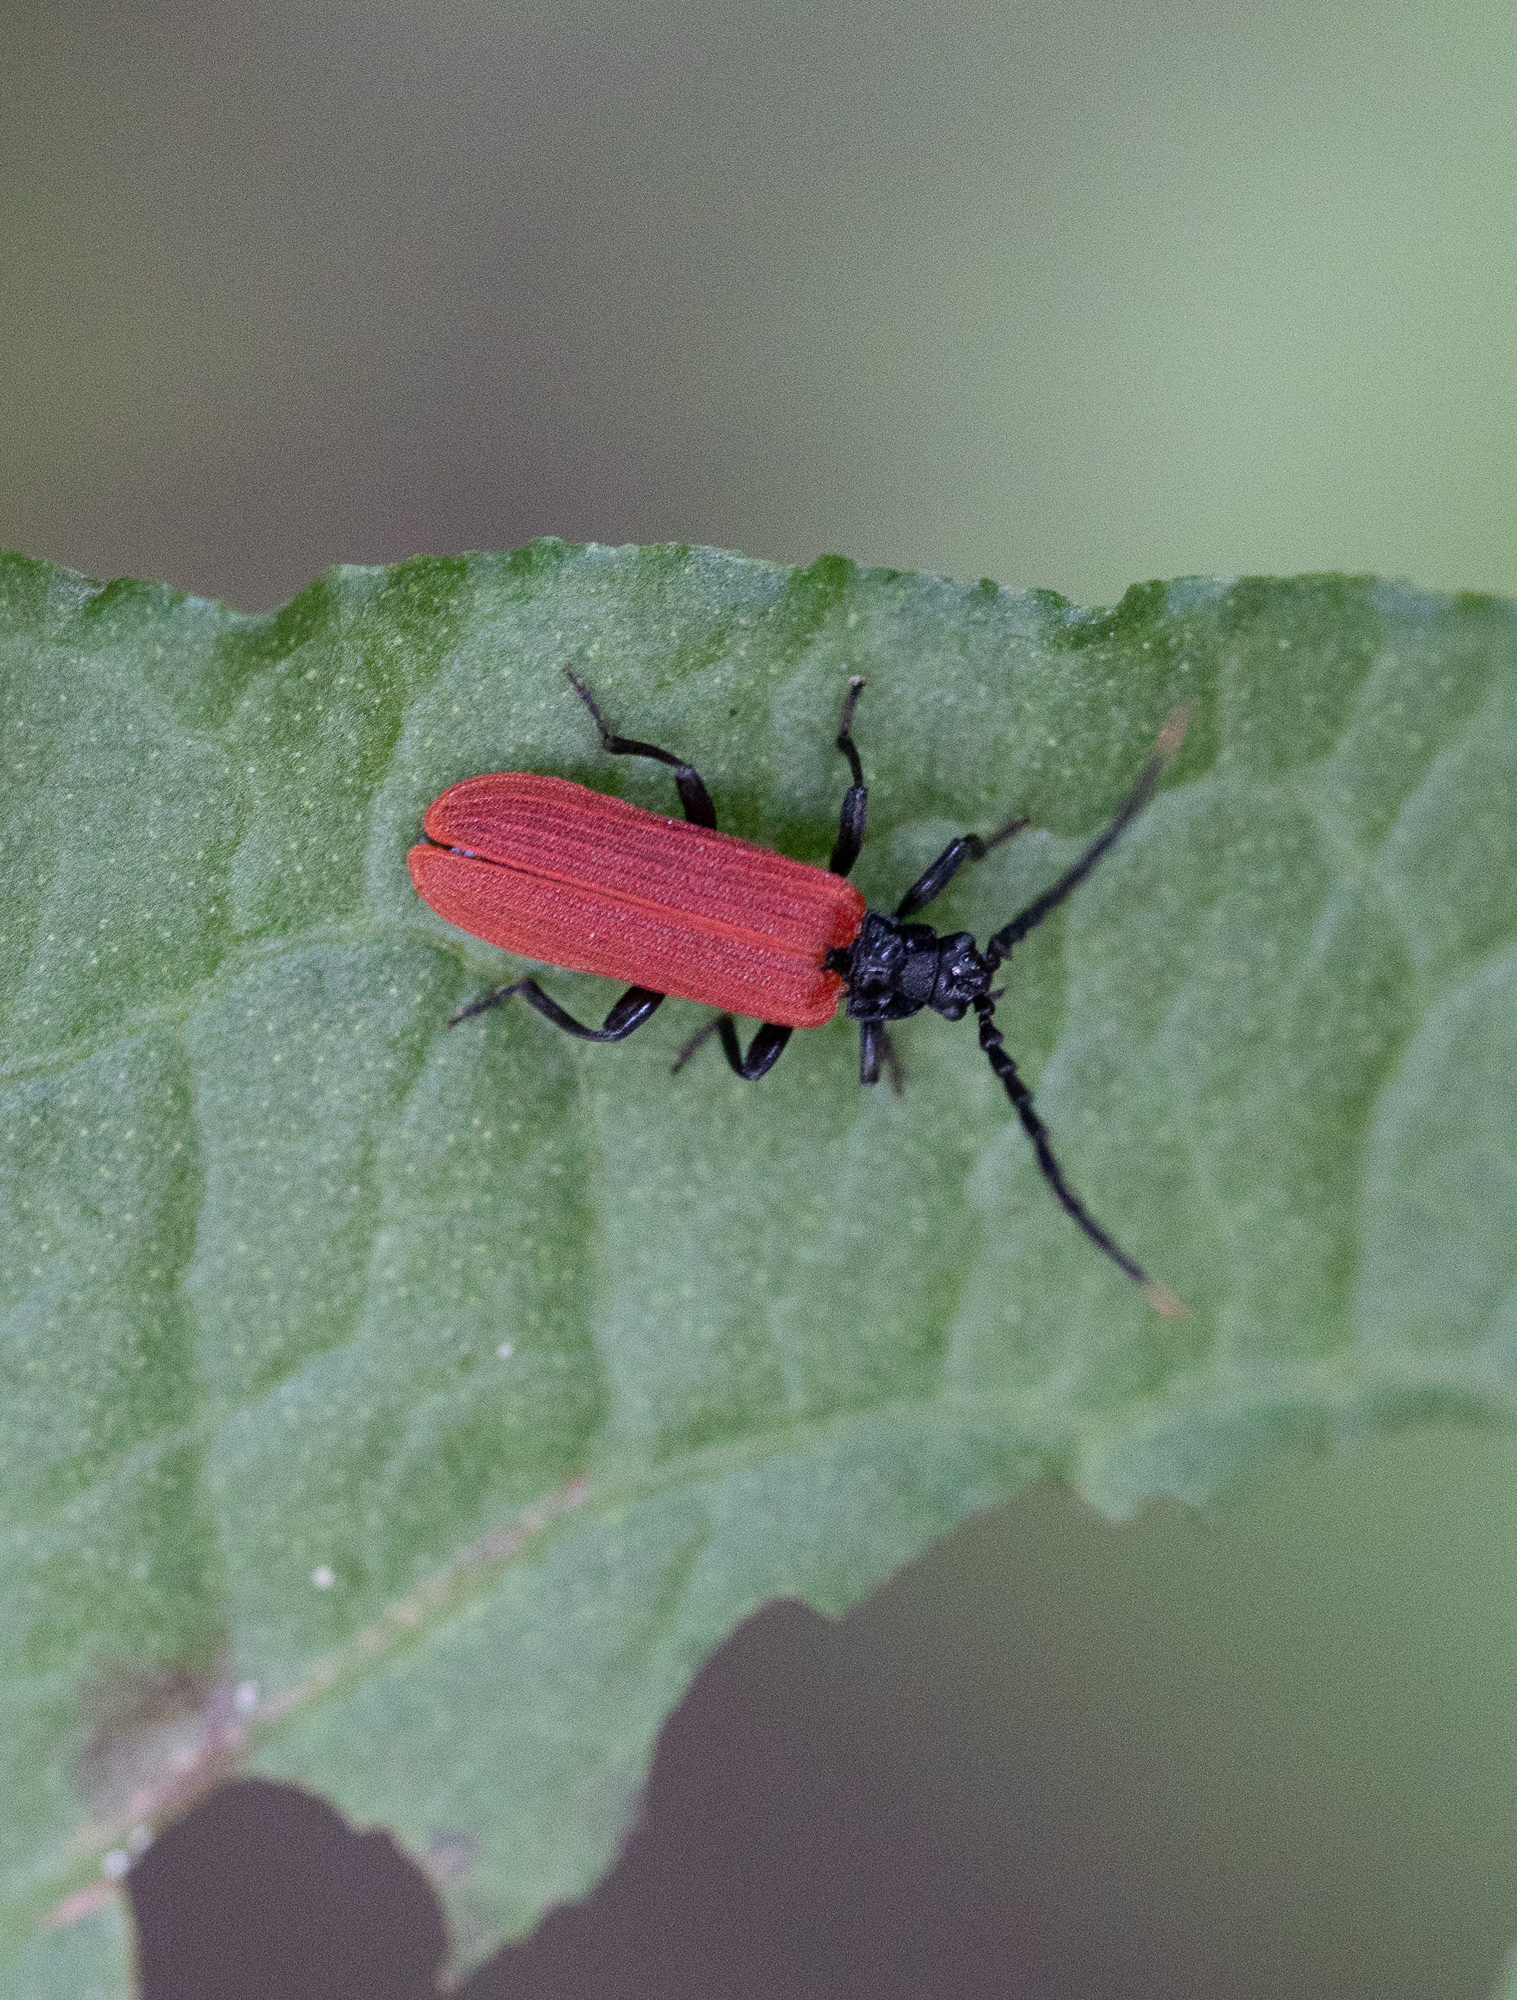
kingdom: Animalia
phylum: Arthropoda
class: Insecta
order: Coleoptera
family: Lycidae
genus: Platycis
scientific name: Platycis minutus
